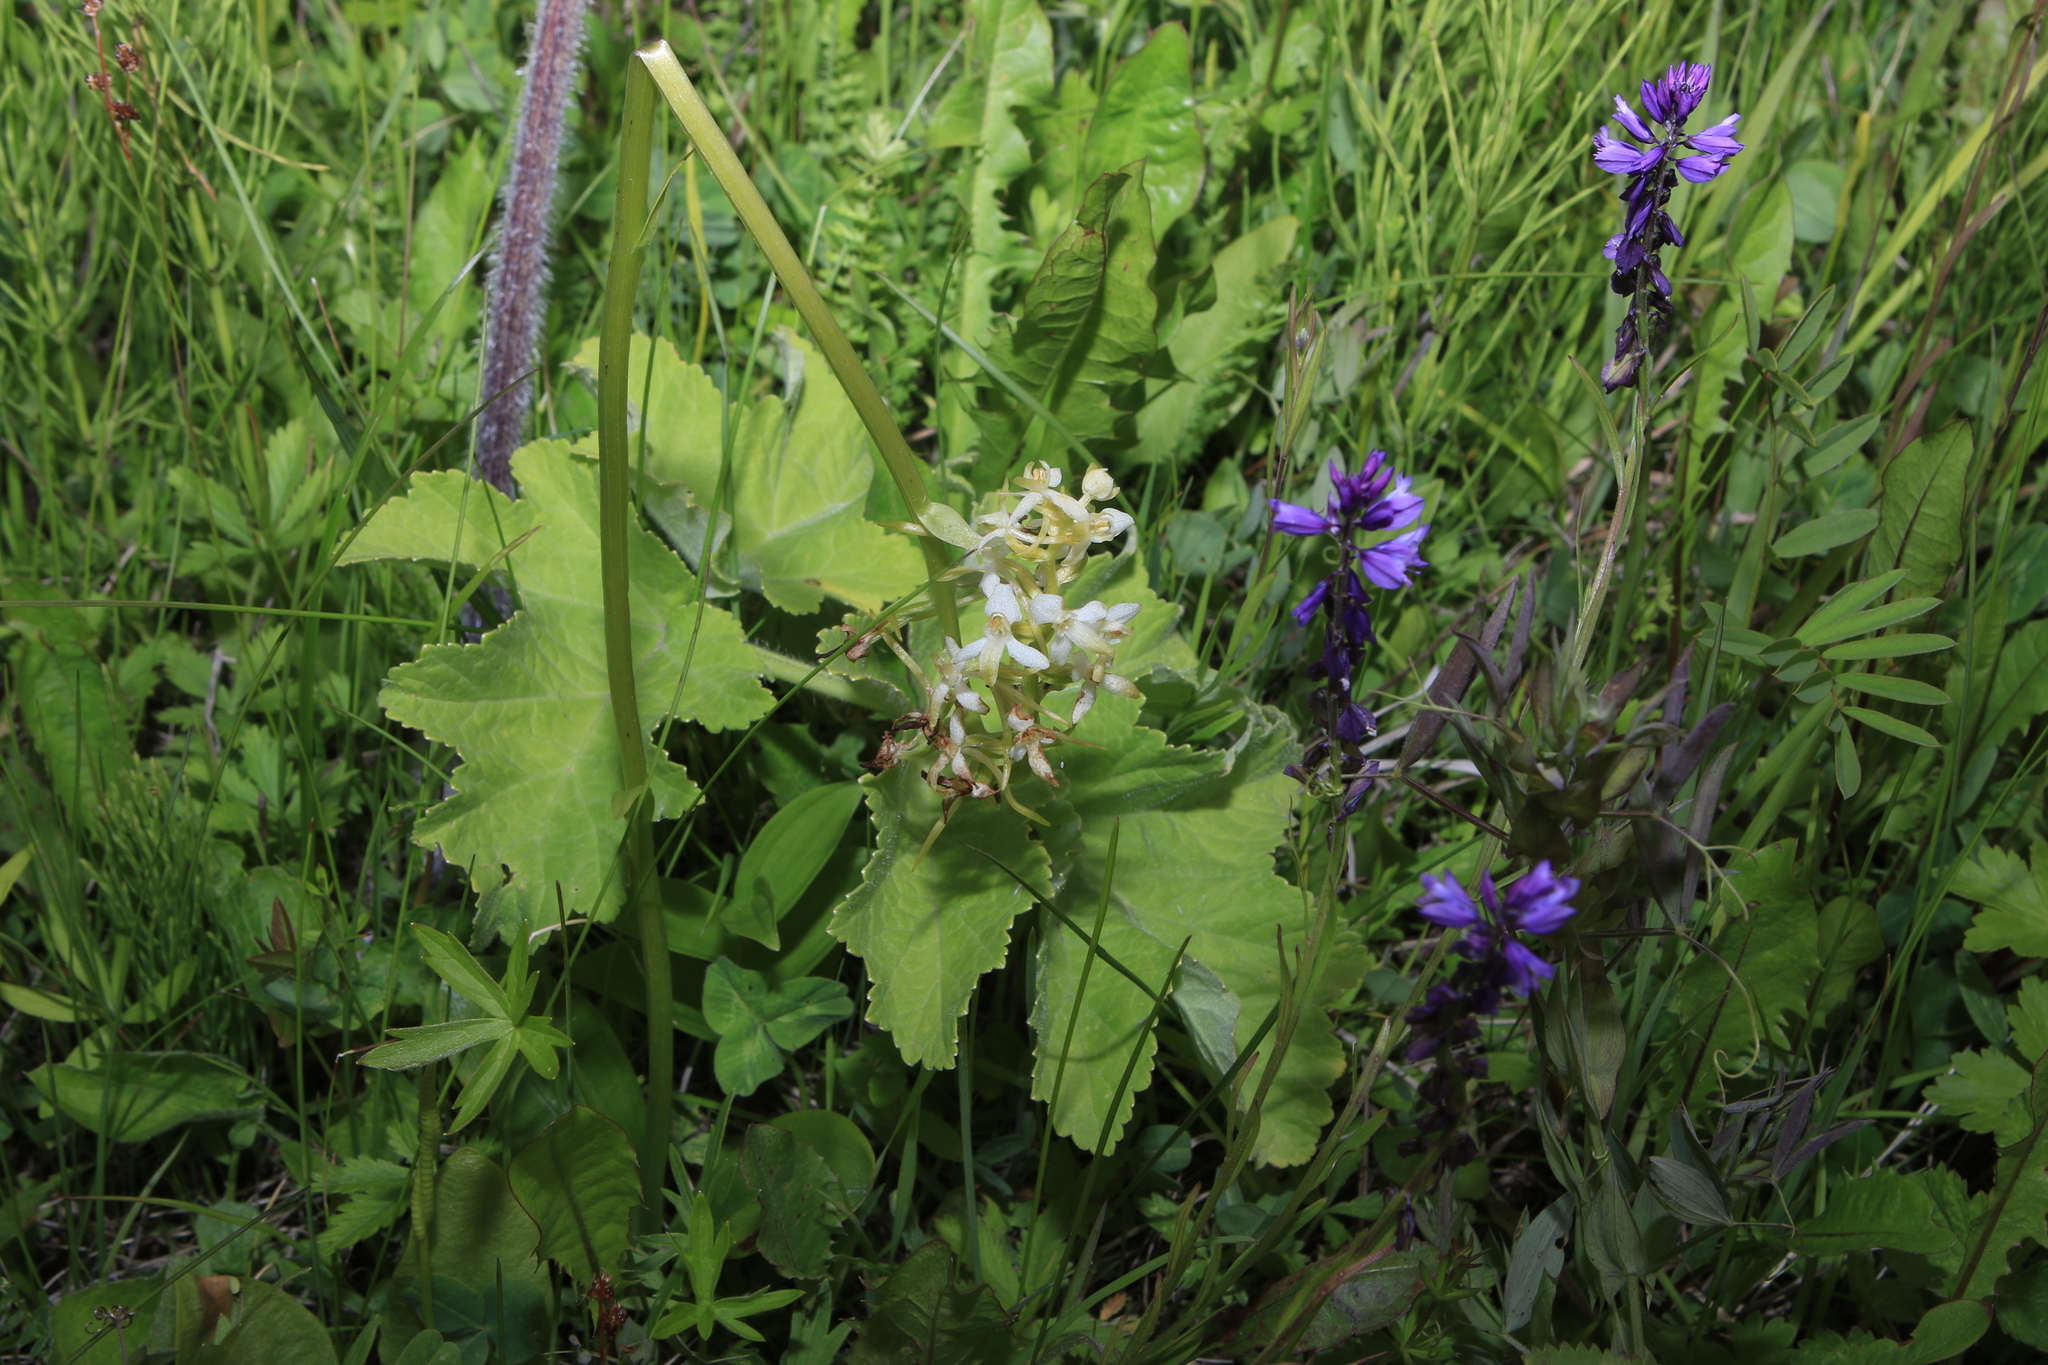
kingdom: Plantae
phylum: Tracheophyta
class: Liliopsida
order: Asparagales
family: Orchidaceae
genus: Platanthera
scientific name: Platanthera bifolia
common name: Lesser butterfly-orchid
